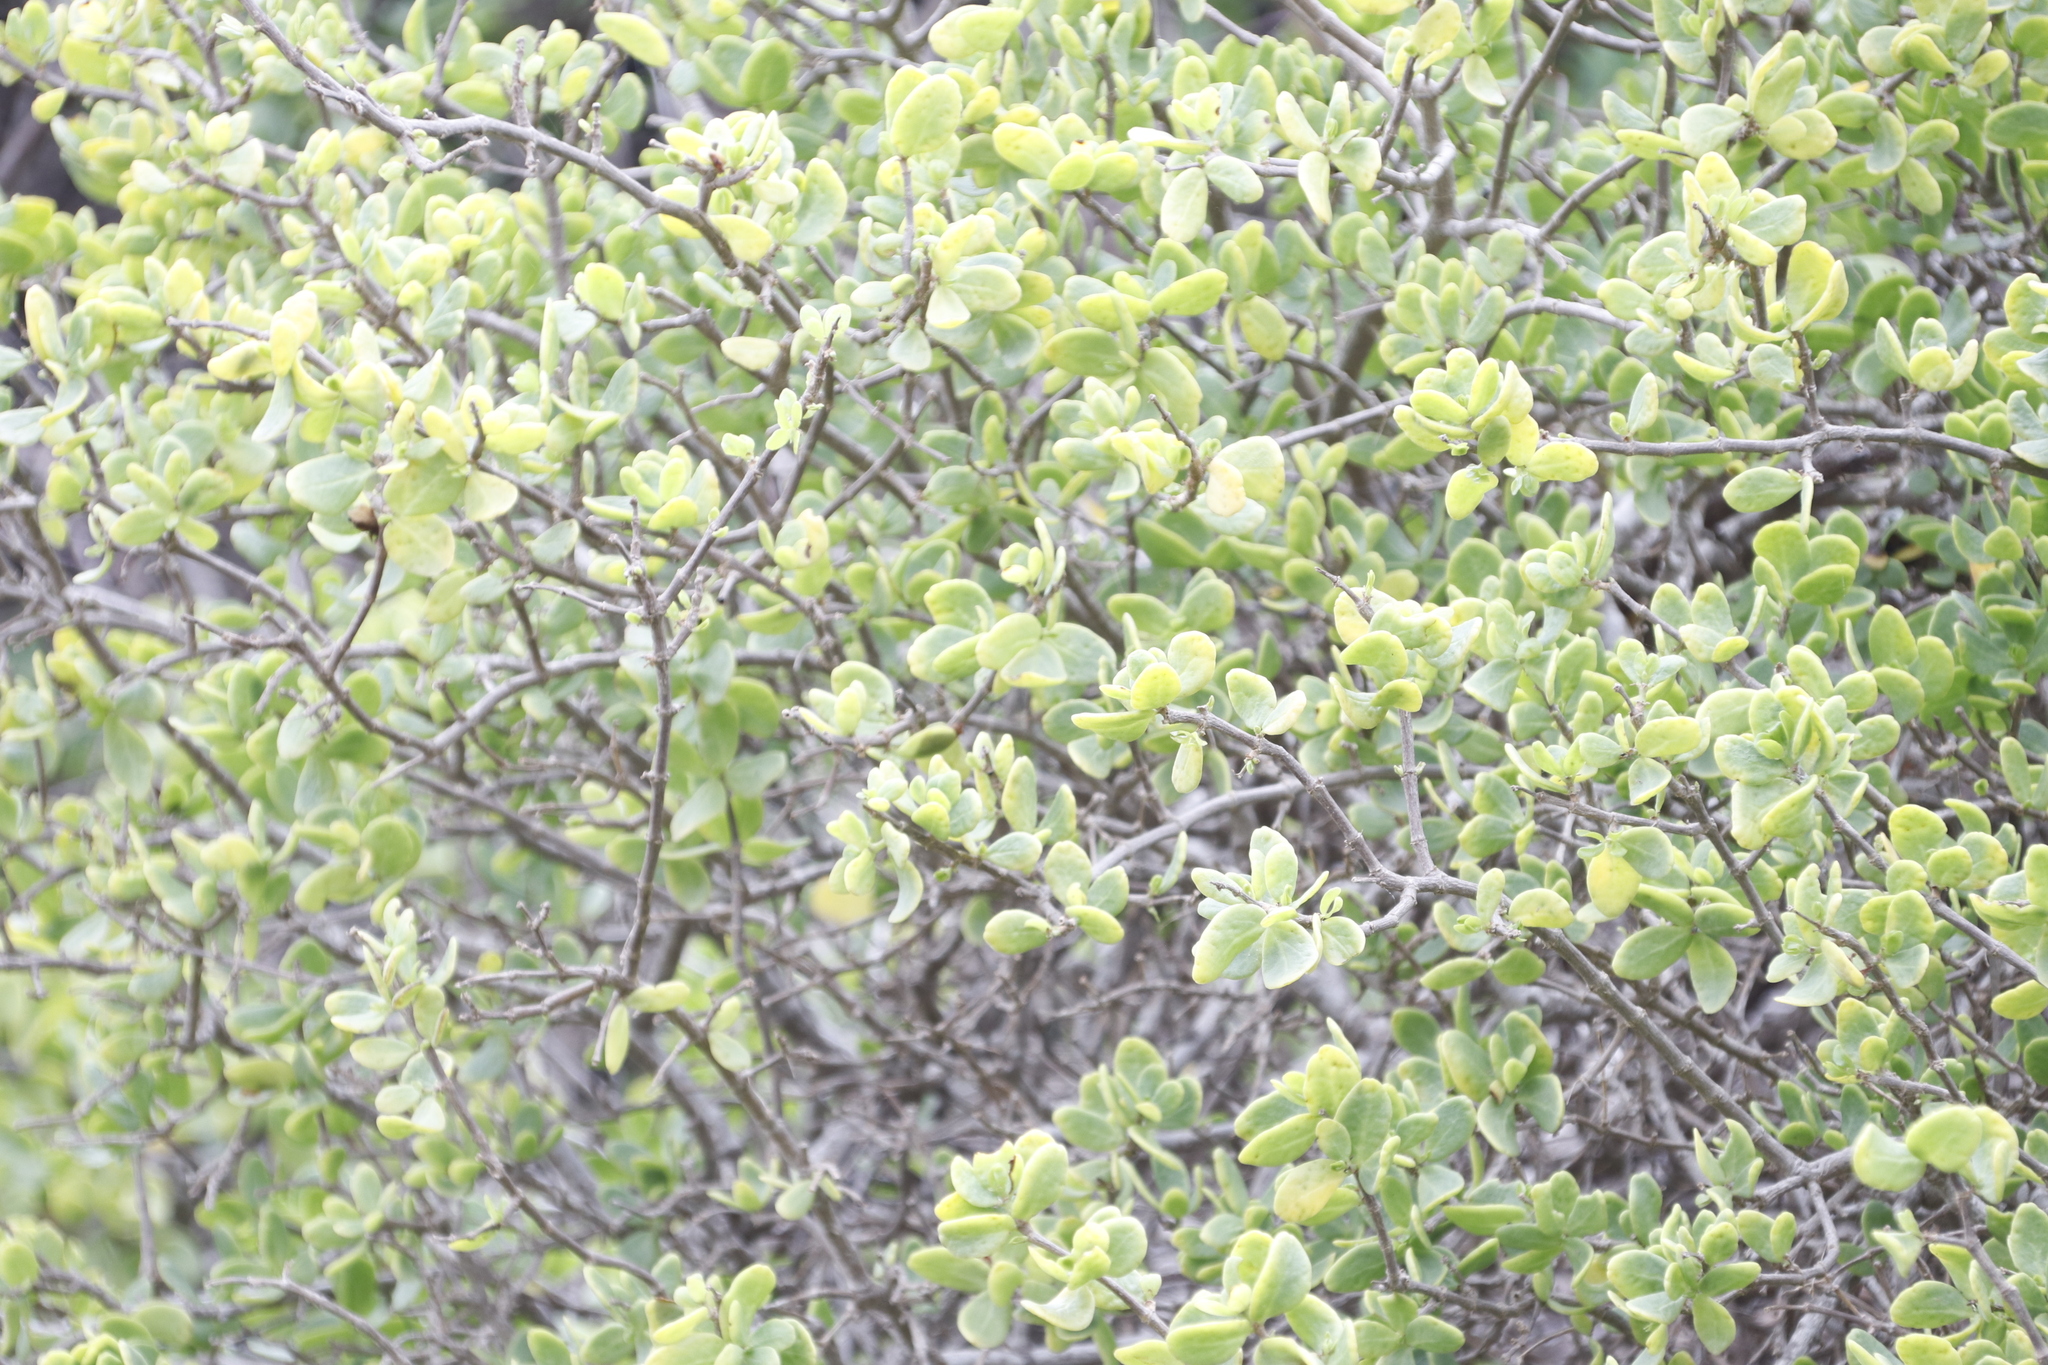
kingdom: Plantae
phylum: Tracheophyta
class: Magnoliopsida
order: Zygophyllales
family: Zygophyllaceae
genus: Roepera
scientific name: Roepera morgsana
